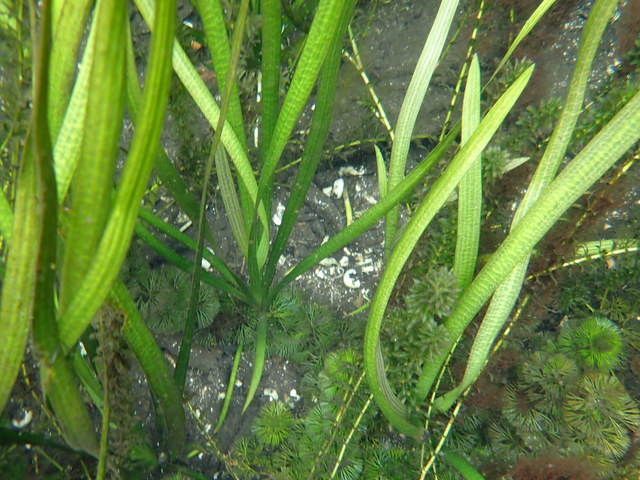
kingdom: Plantae
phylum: Tracheophyta
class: Liliopsida
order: Alismatales
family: Hydrocharitaceae
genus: Vallisneria
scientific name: Vallisneria americana
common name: American eelgrass
